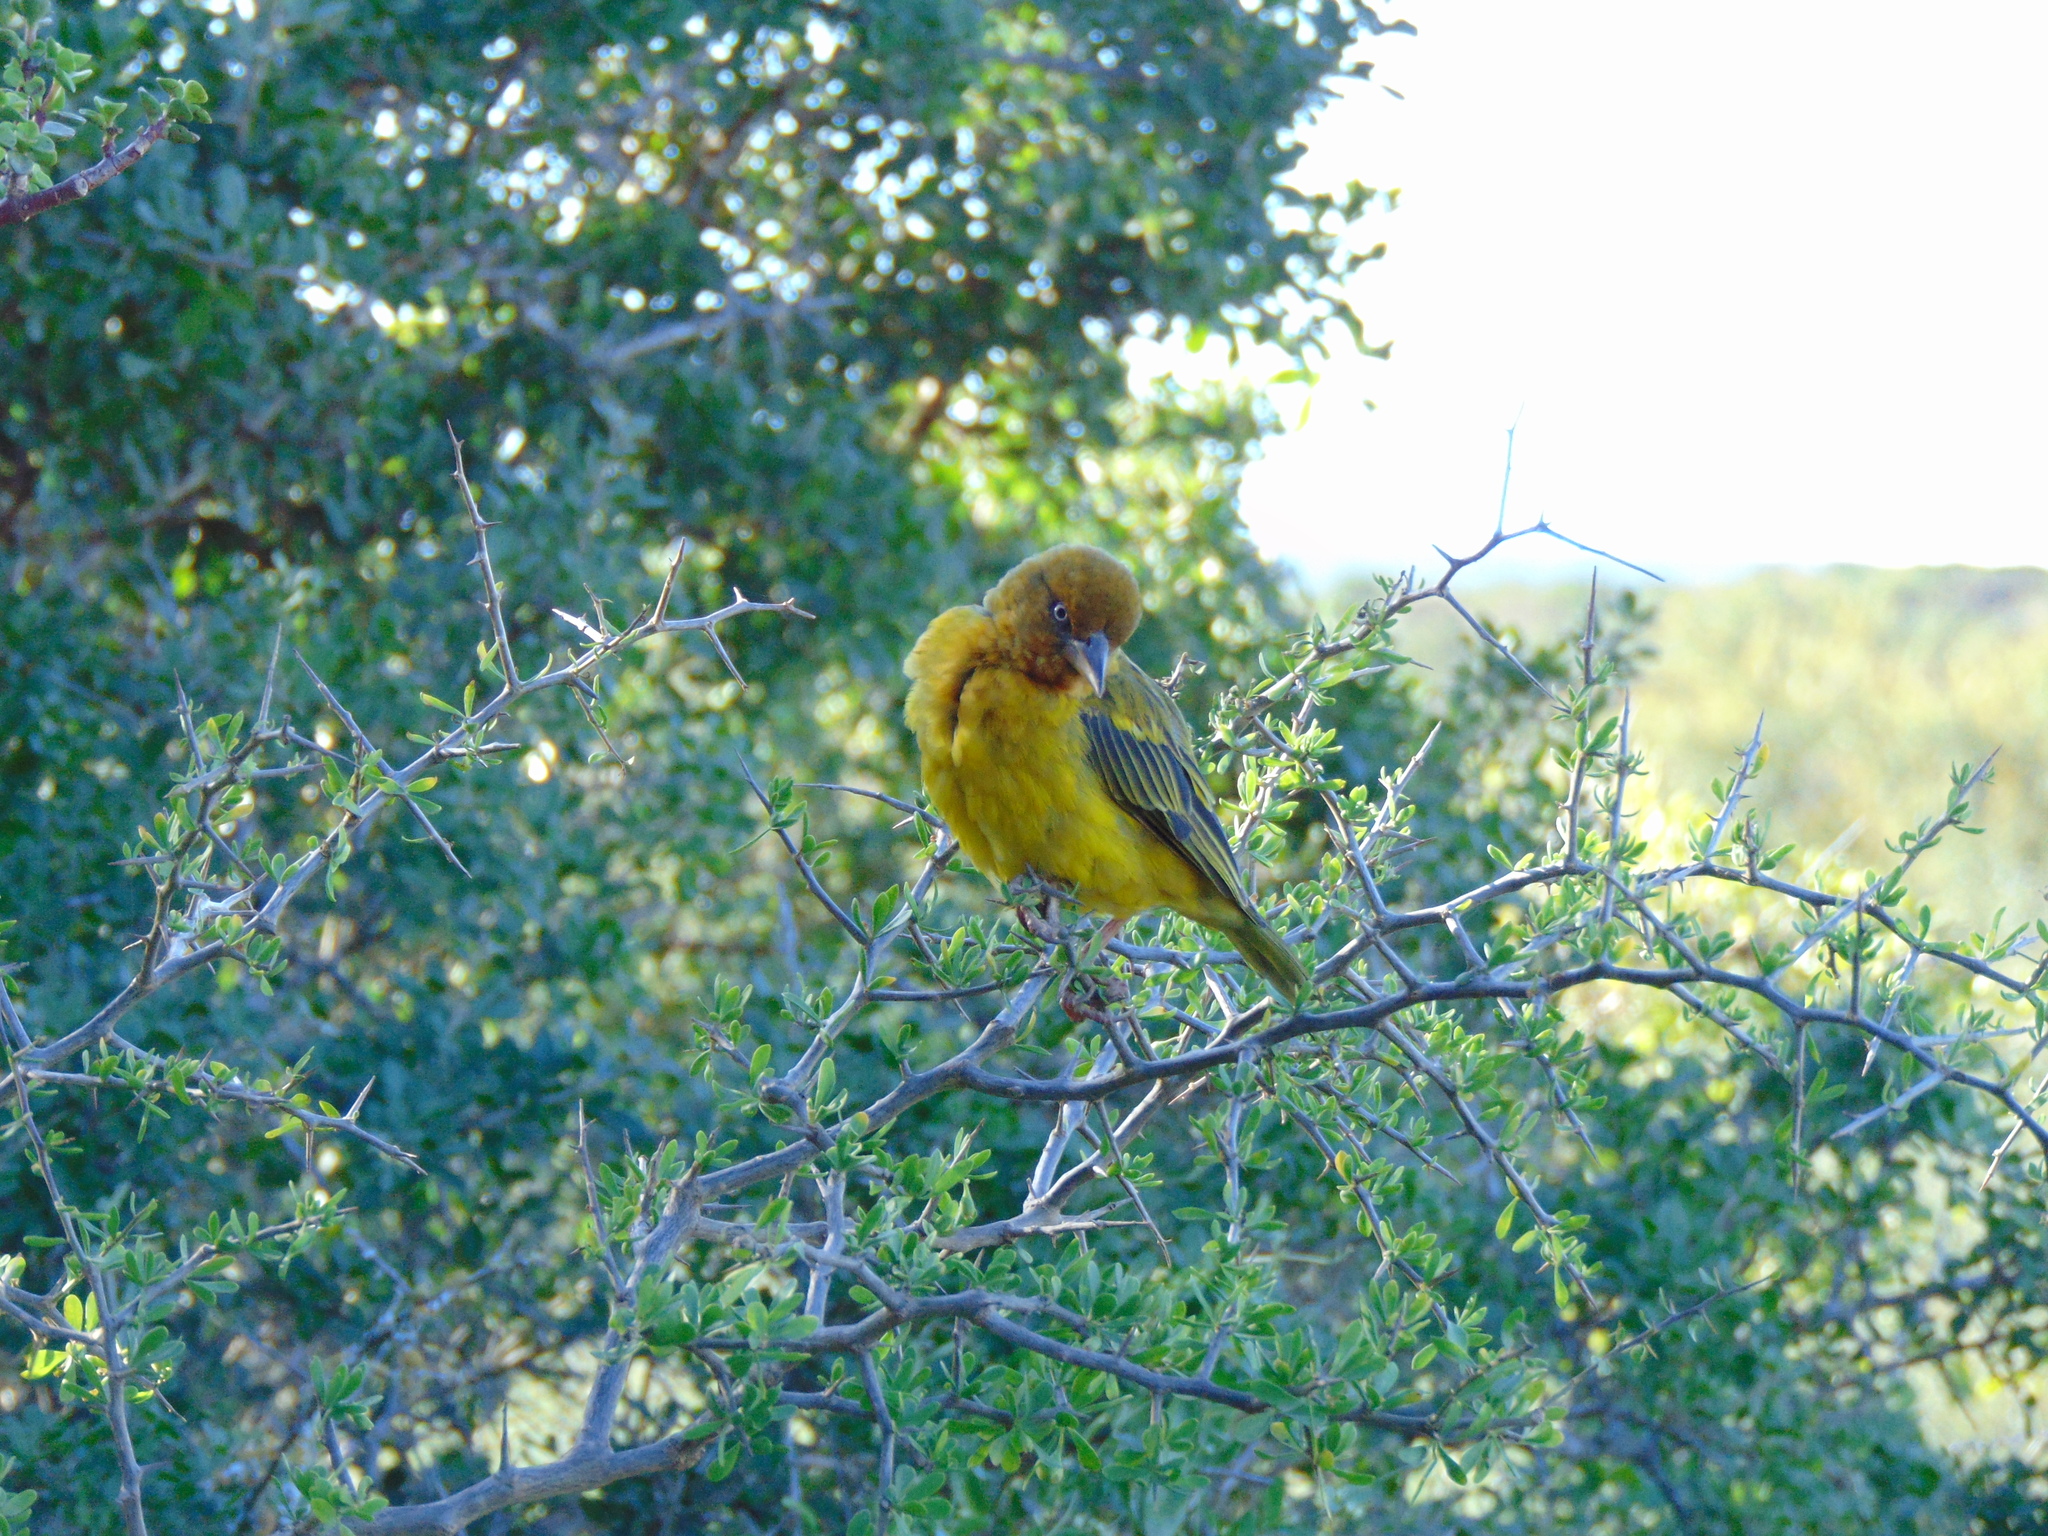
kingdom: Animalia
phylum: Chordata
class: Aves
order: Passeriformes
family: Ploceidae
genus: Ploceus
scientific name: Ploceus capensis
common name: Cape weaver
